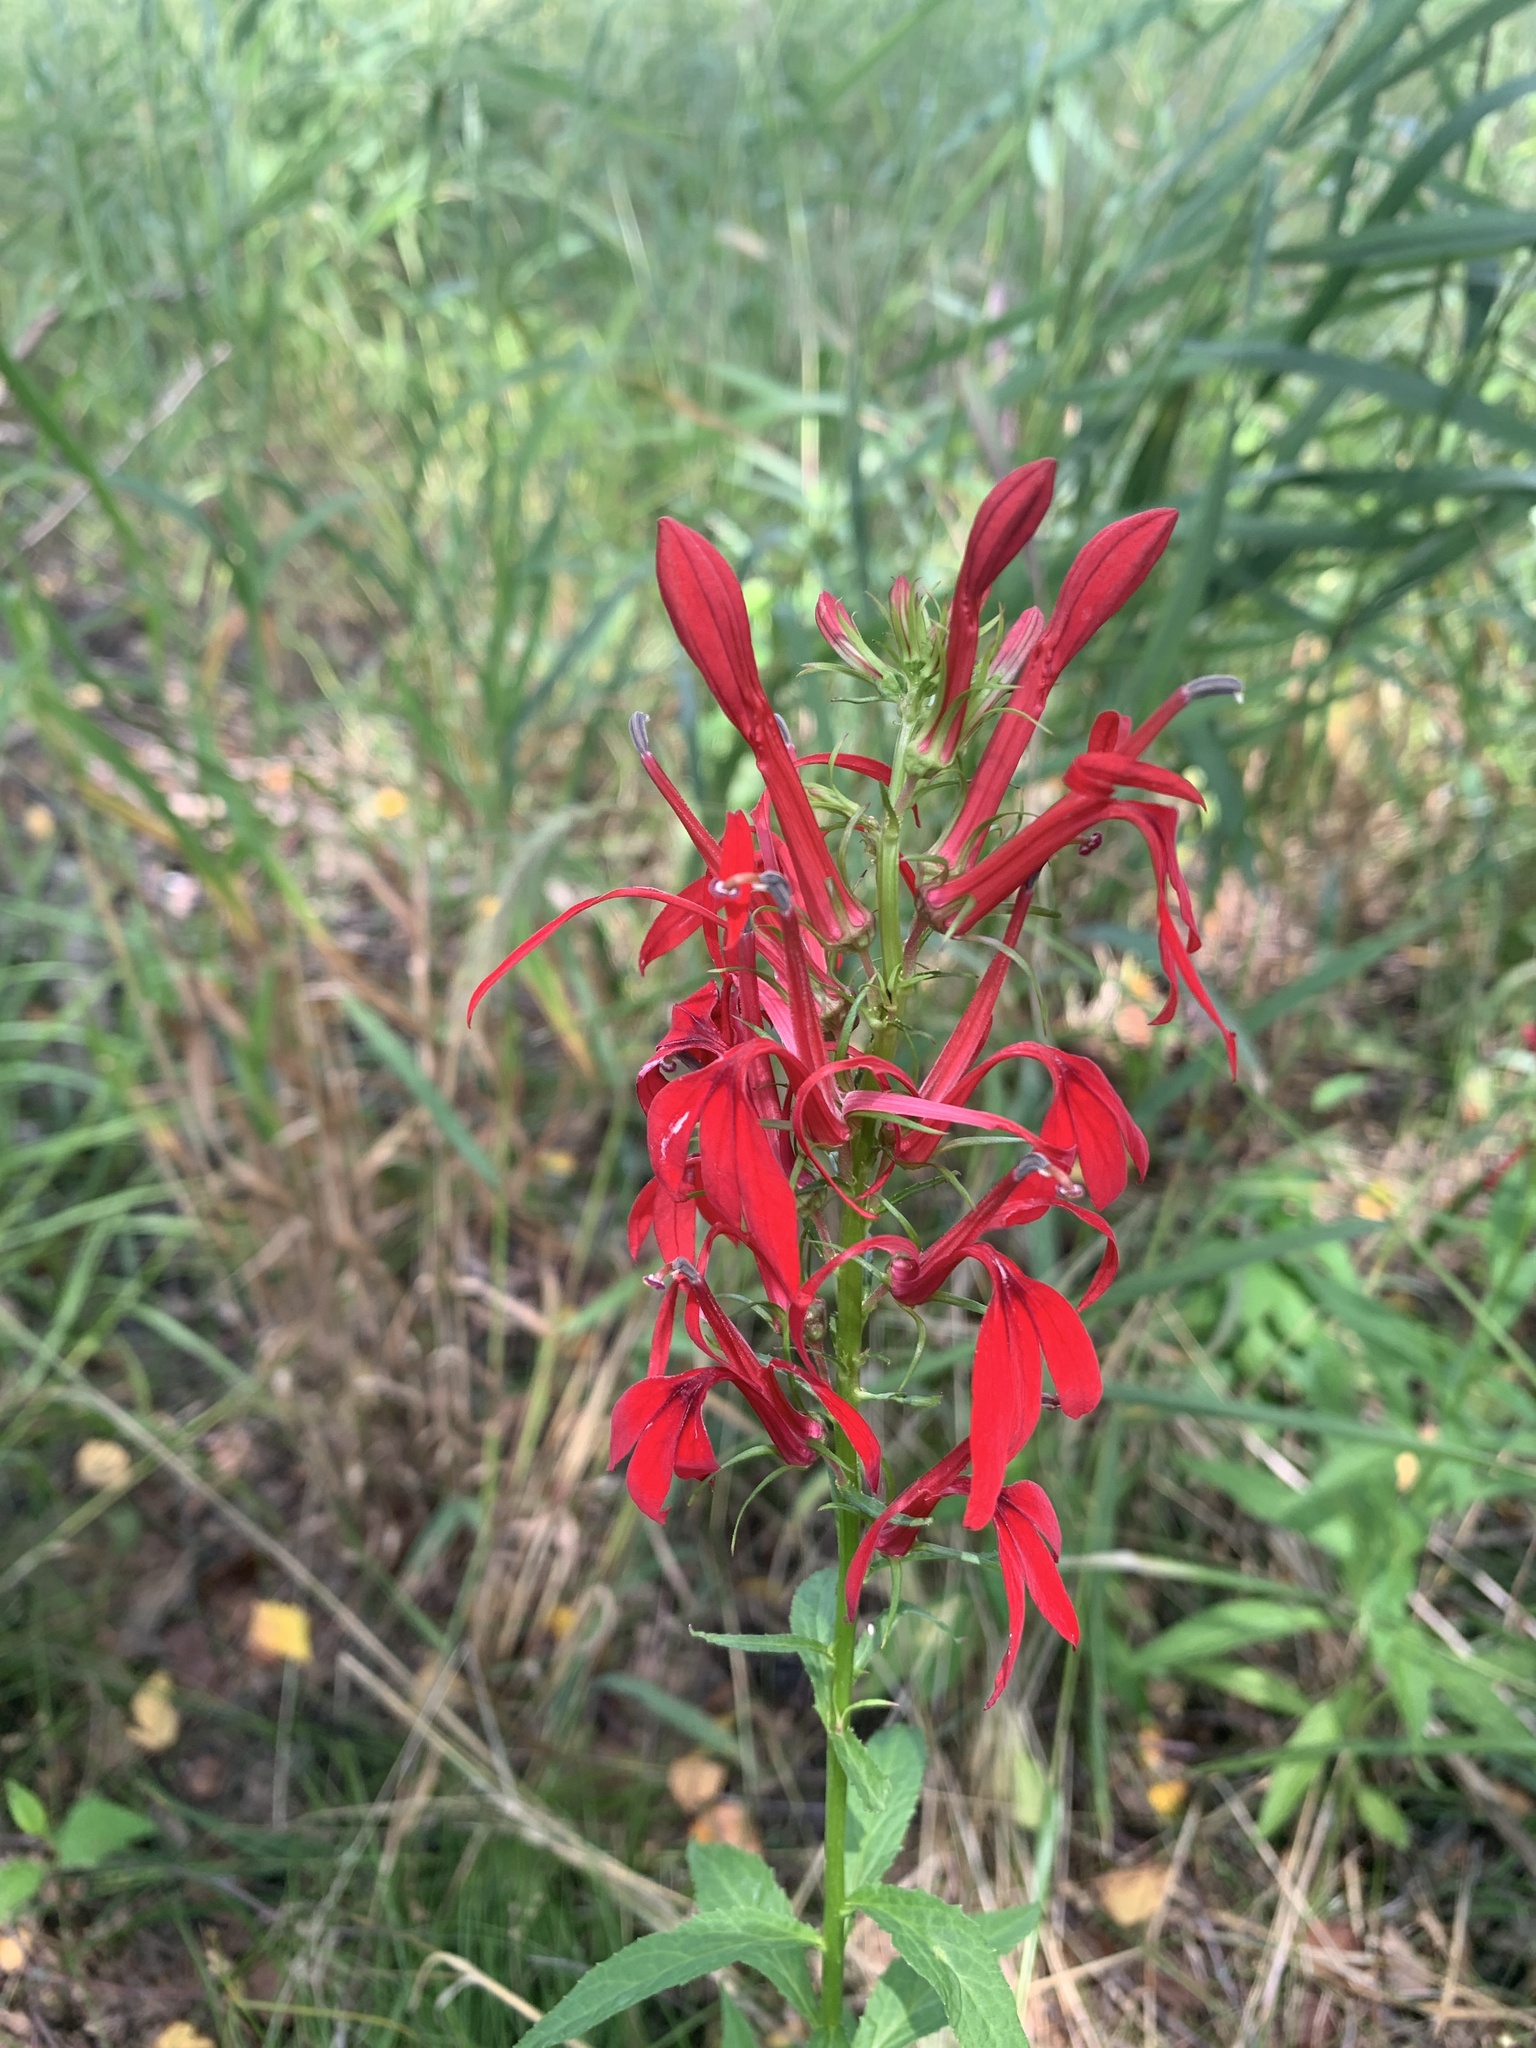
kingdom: Plantae
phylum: Tracheophyta
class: Magnoliopsida
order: Asterales
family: Campanulaceae
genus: Lobelia
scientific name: Lobelia cardinalis
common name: Cardinal flower
